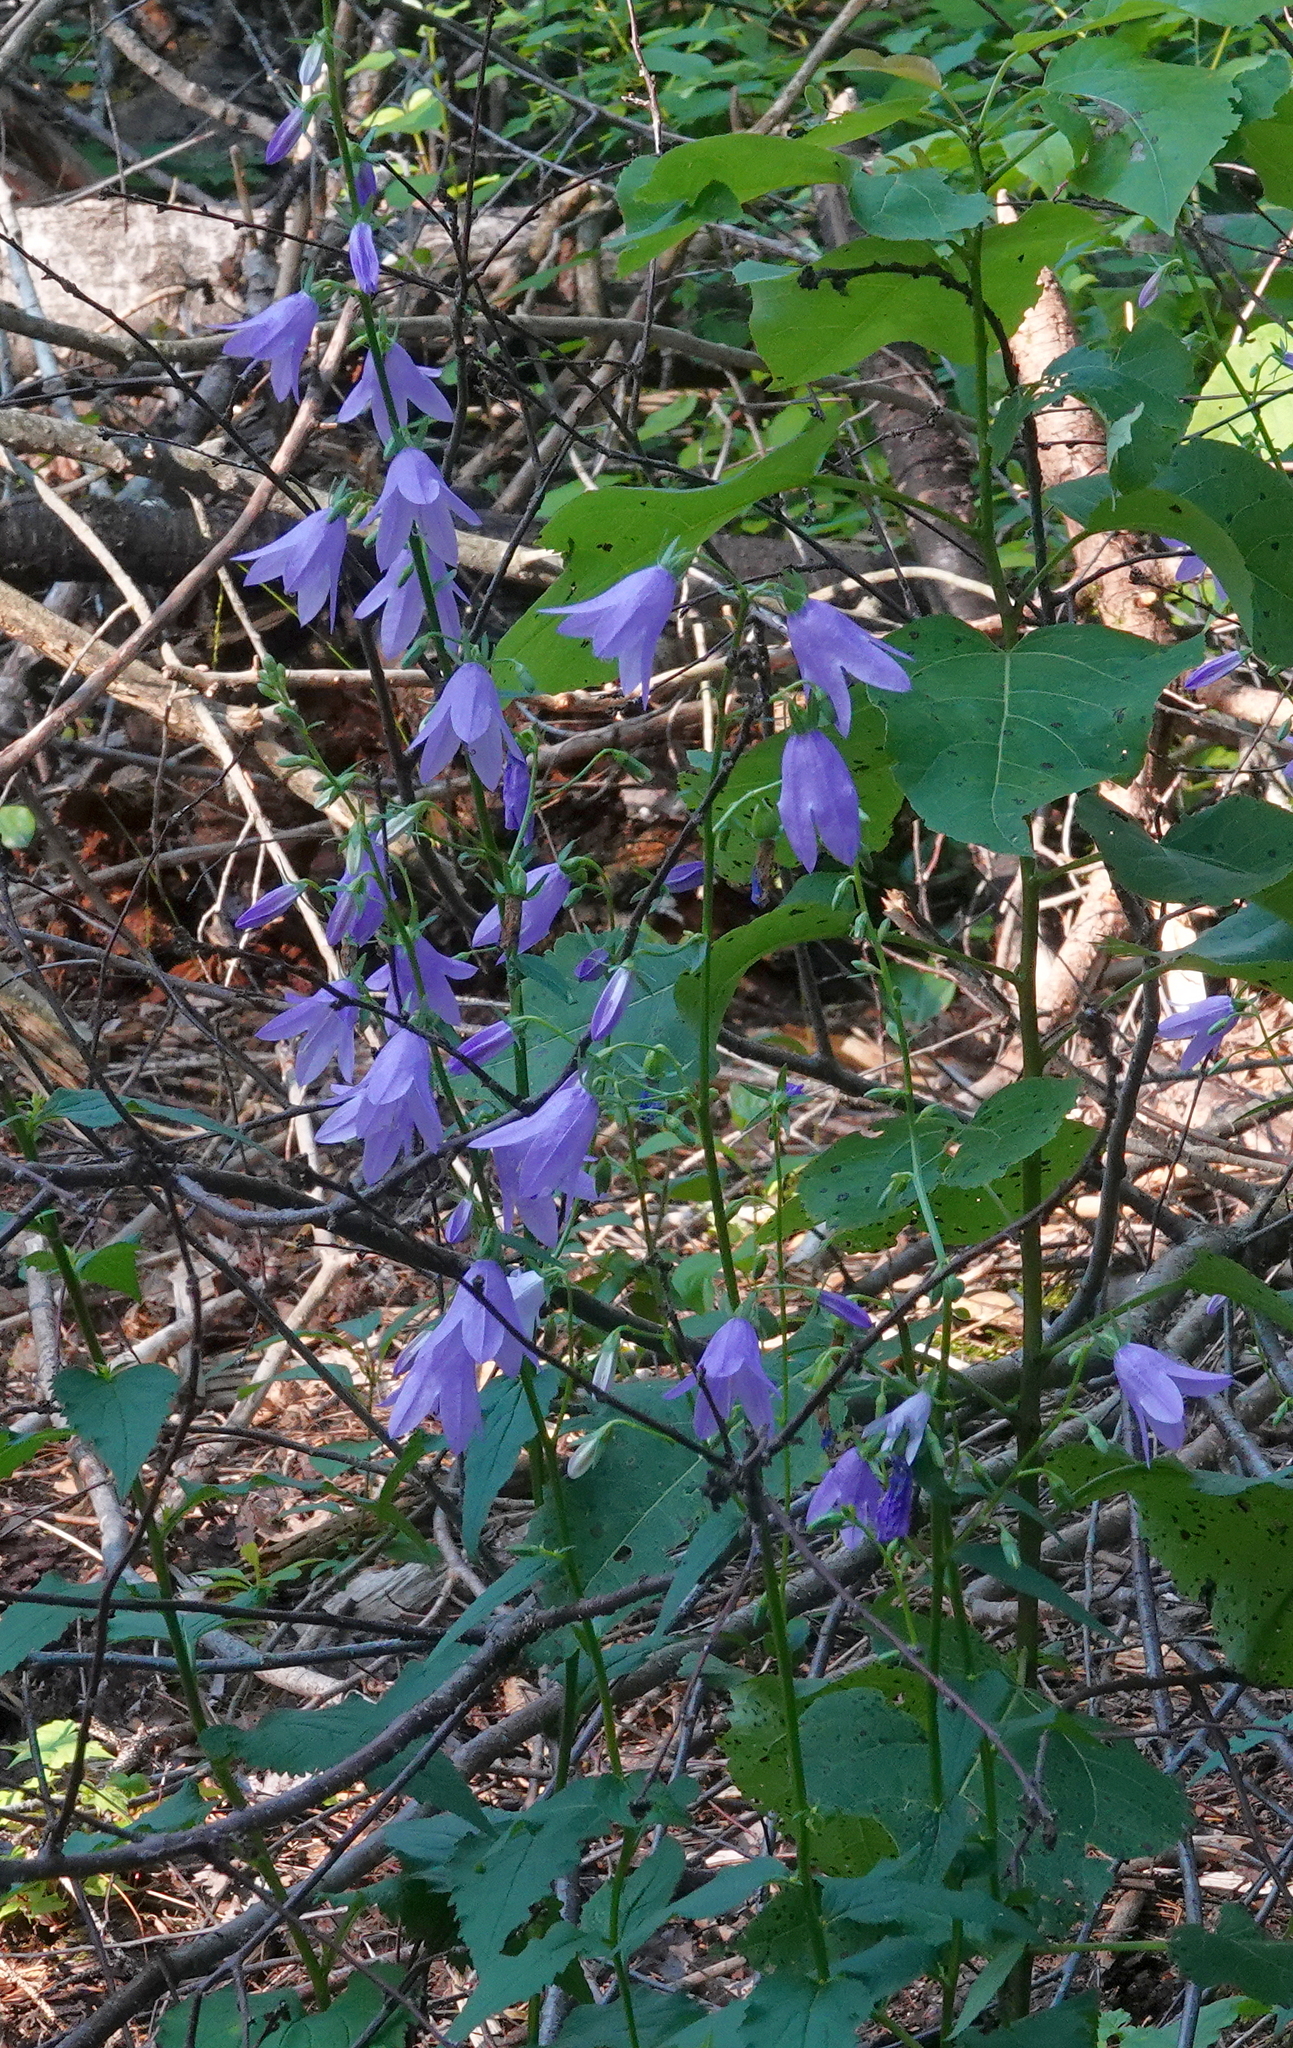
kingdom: Plantae
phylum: Tracheophyta
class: Magnoliopsida
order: Asterales
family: Campanulaceae
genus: Campanula
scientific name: Campanula rapunculoides
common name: Creeping bellflower
